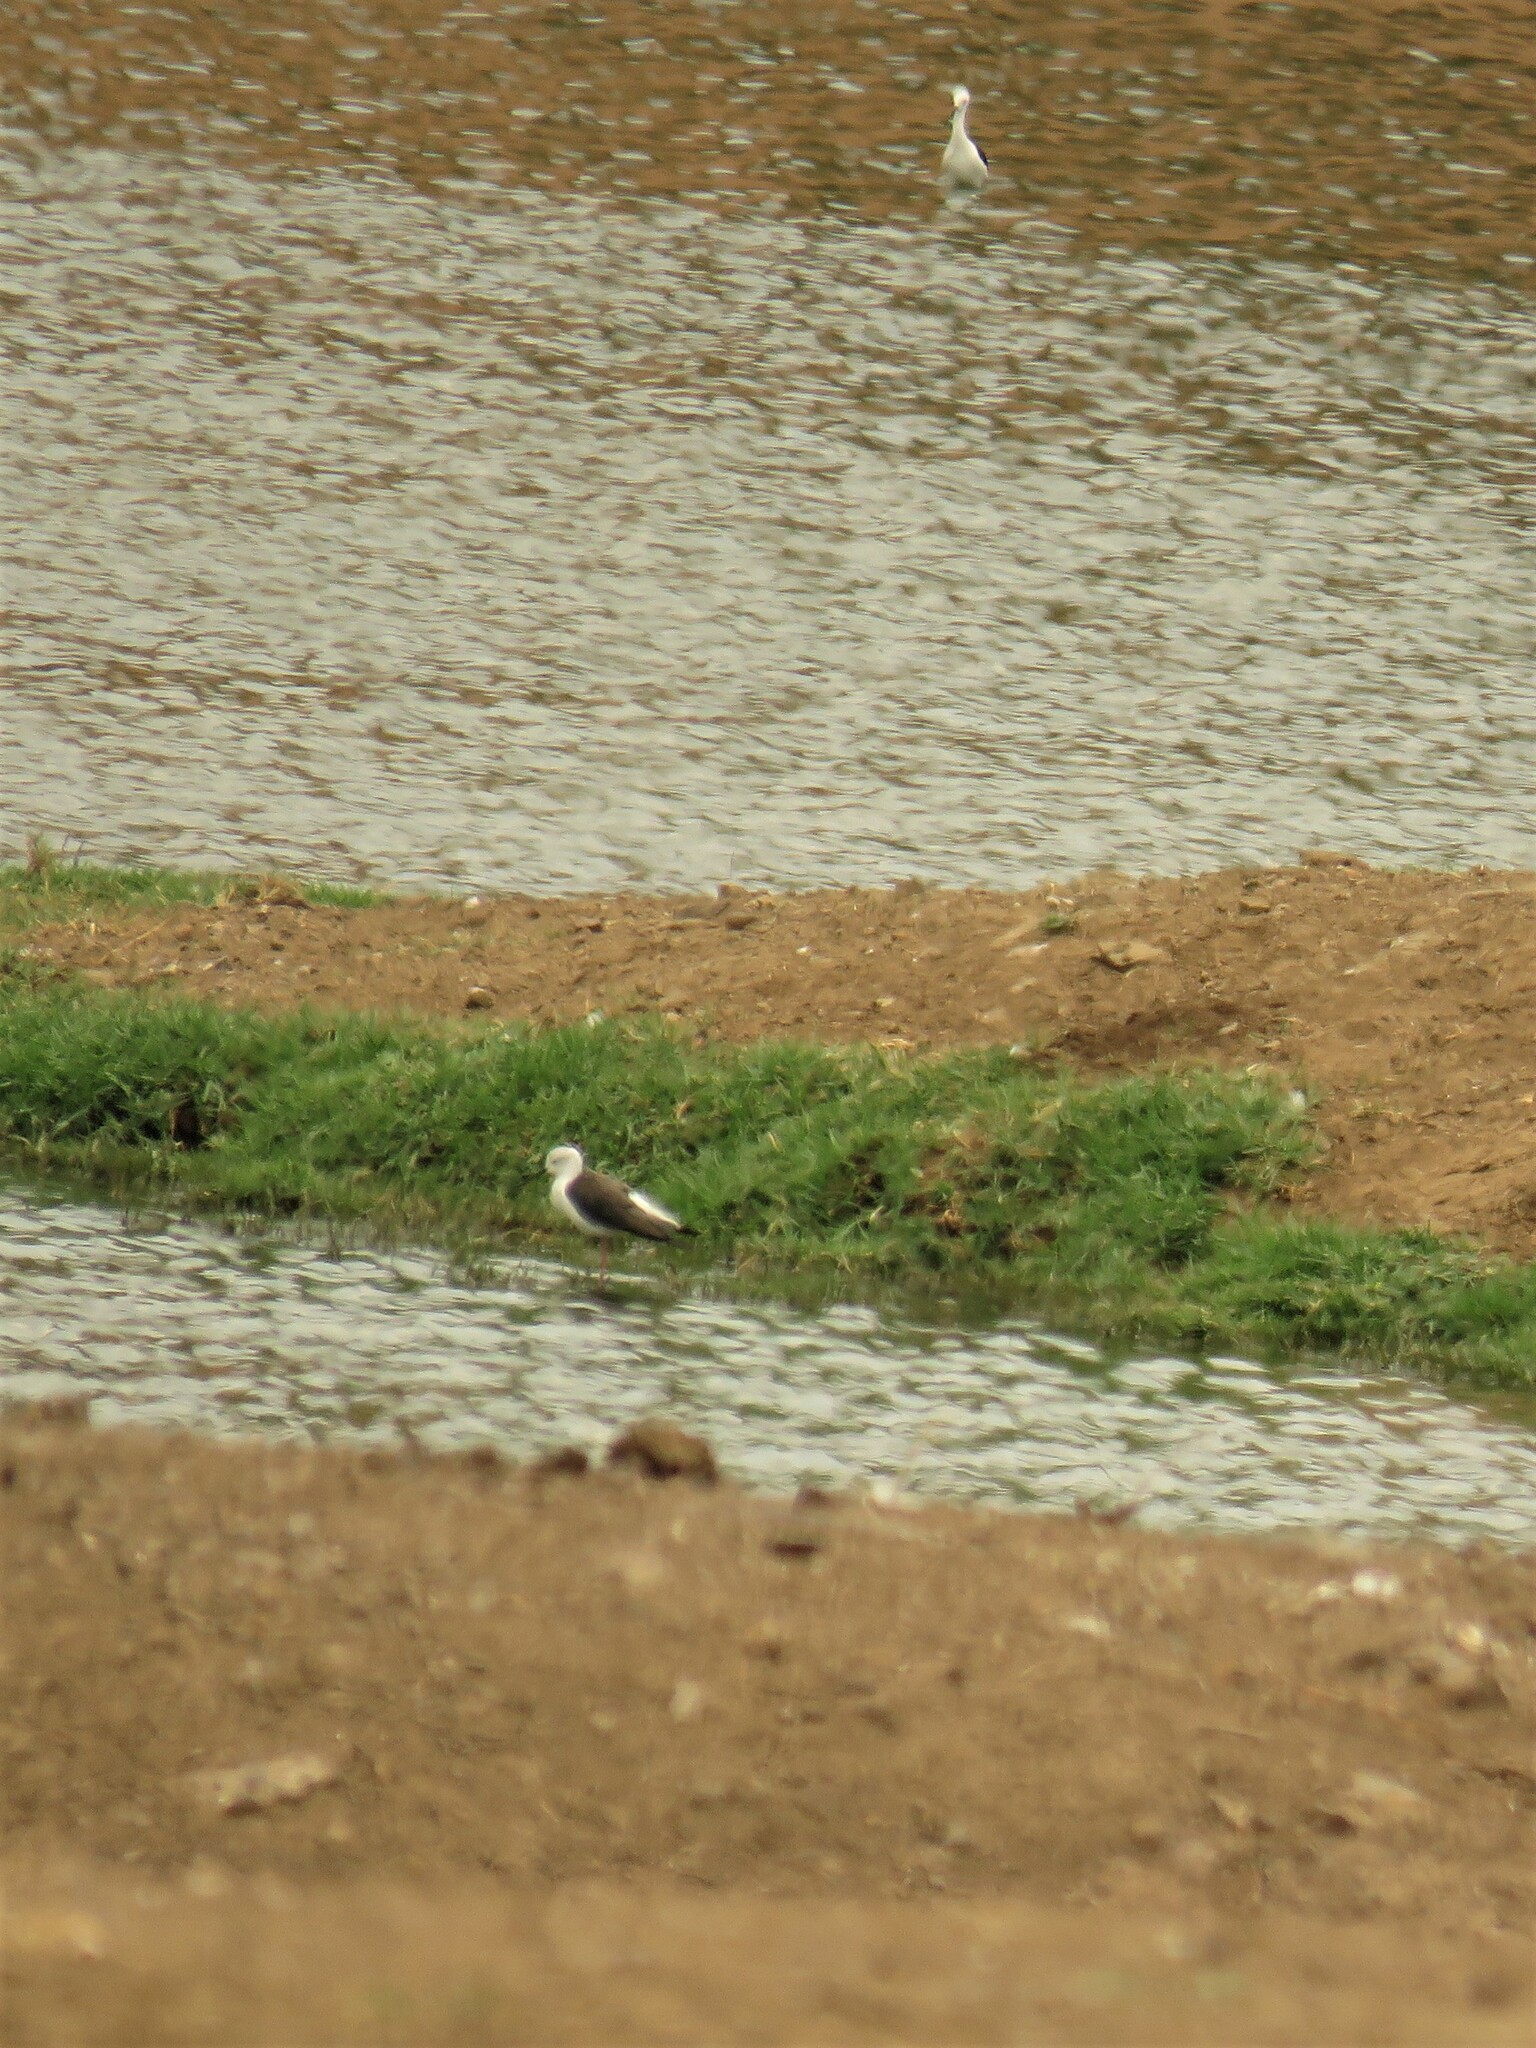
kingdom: Animalia
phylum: Chordata
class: Aves
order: Charadriiformes
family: Recurvirostridae
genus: Himantopus
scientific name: Himantopus himantopus
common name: Black-winged stilt
